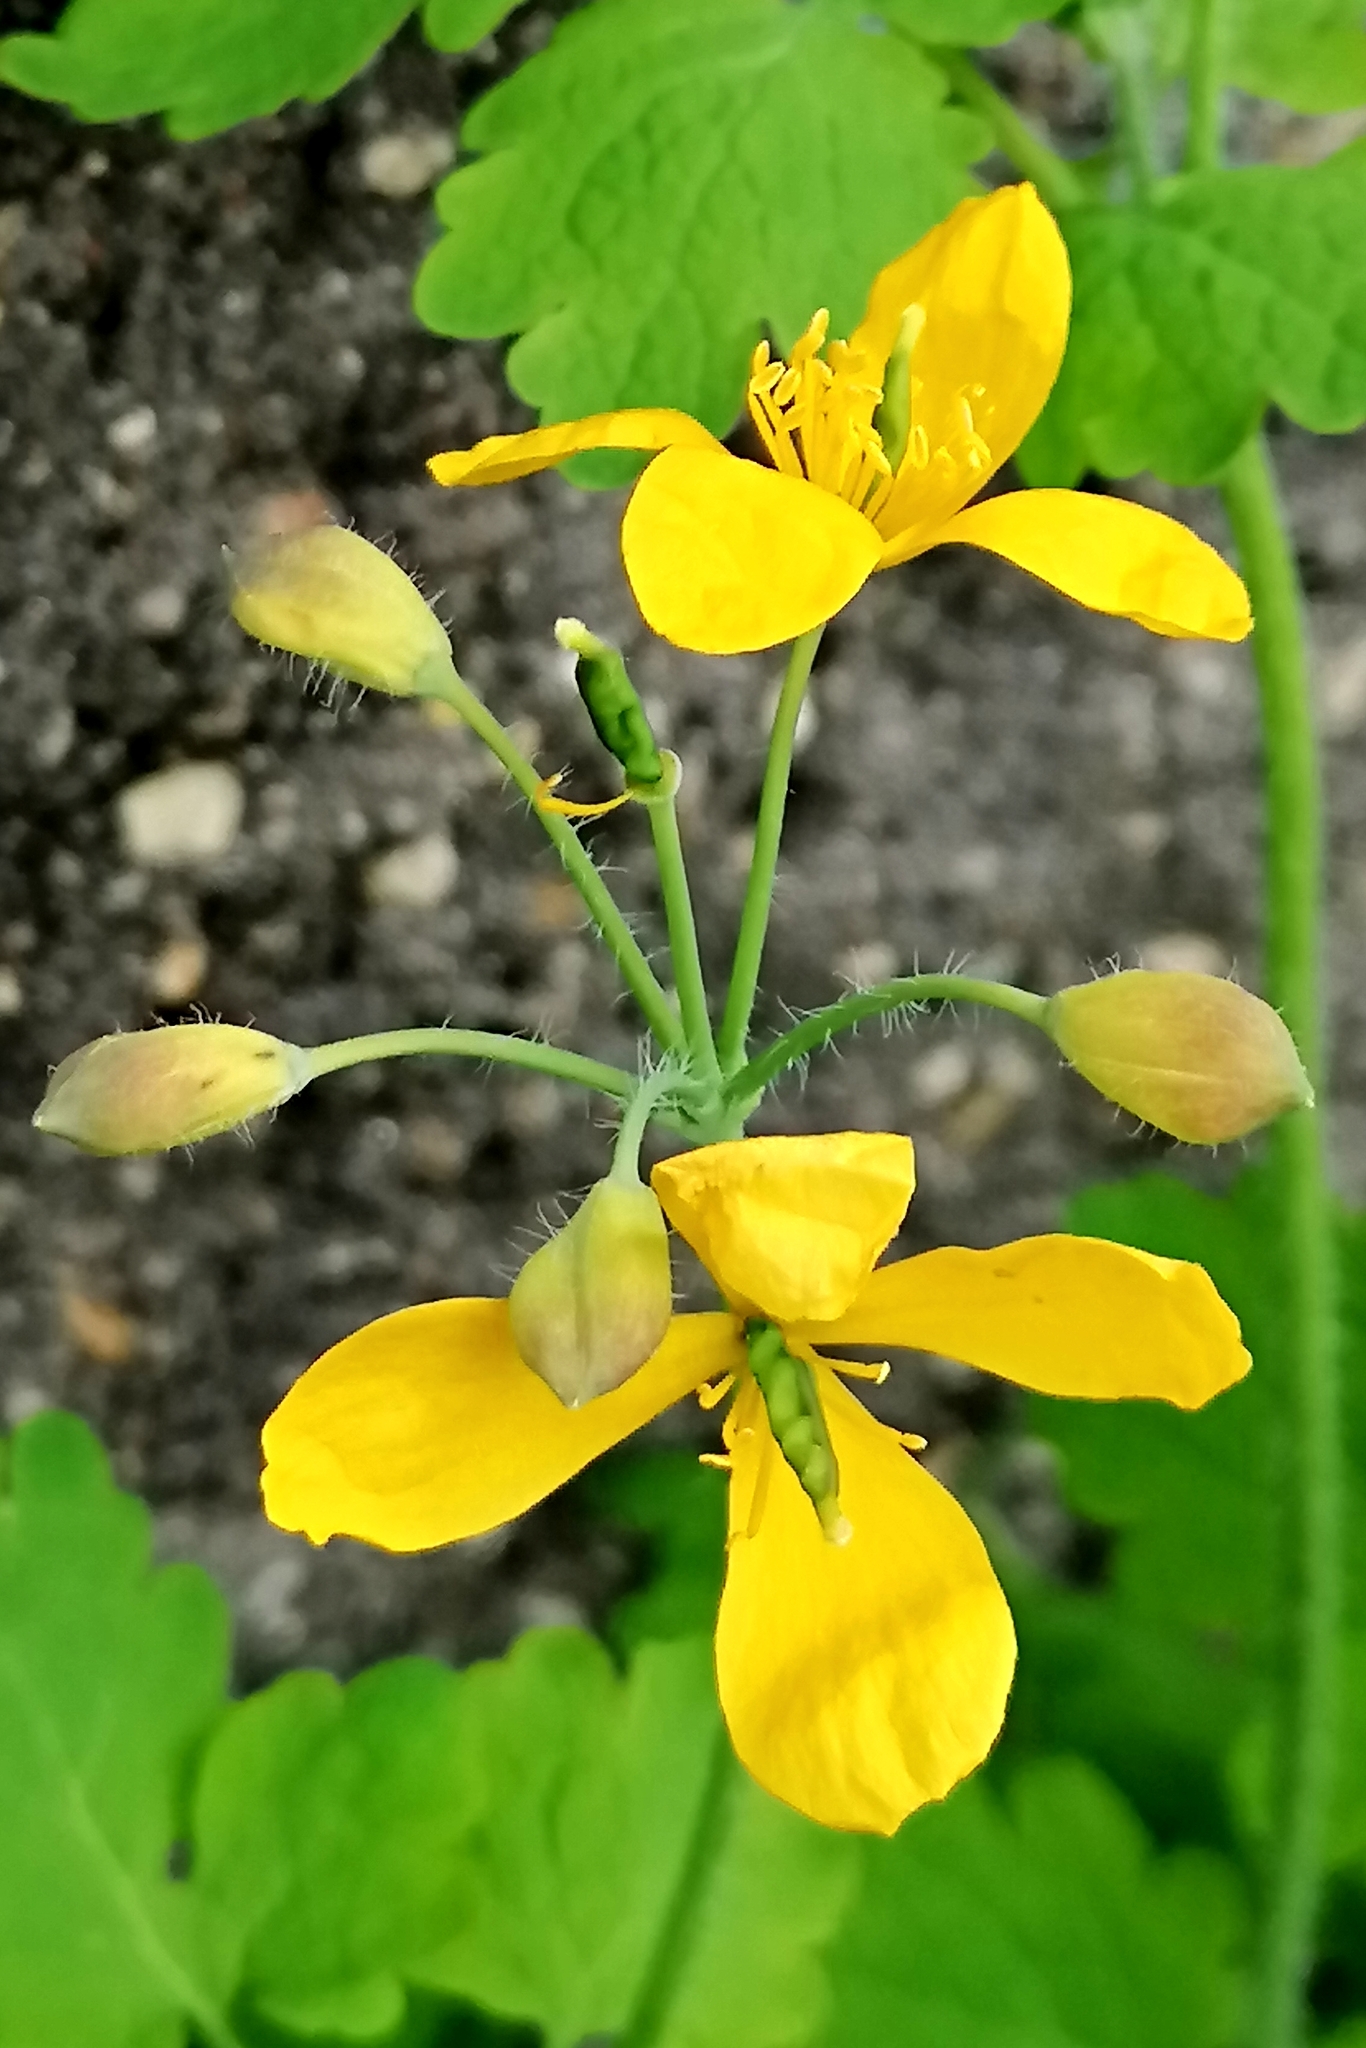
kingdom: Plantae
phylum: Tracheophyta
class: Magnoliopsida
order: Ranunculales
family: Papaveraceae
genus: Chelidonium
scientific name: Chelidonium majus
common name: Greater celandine
